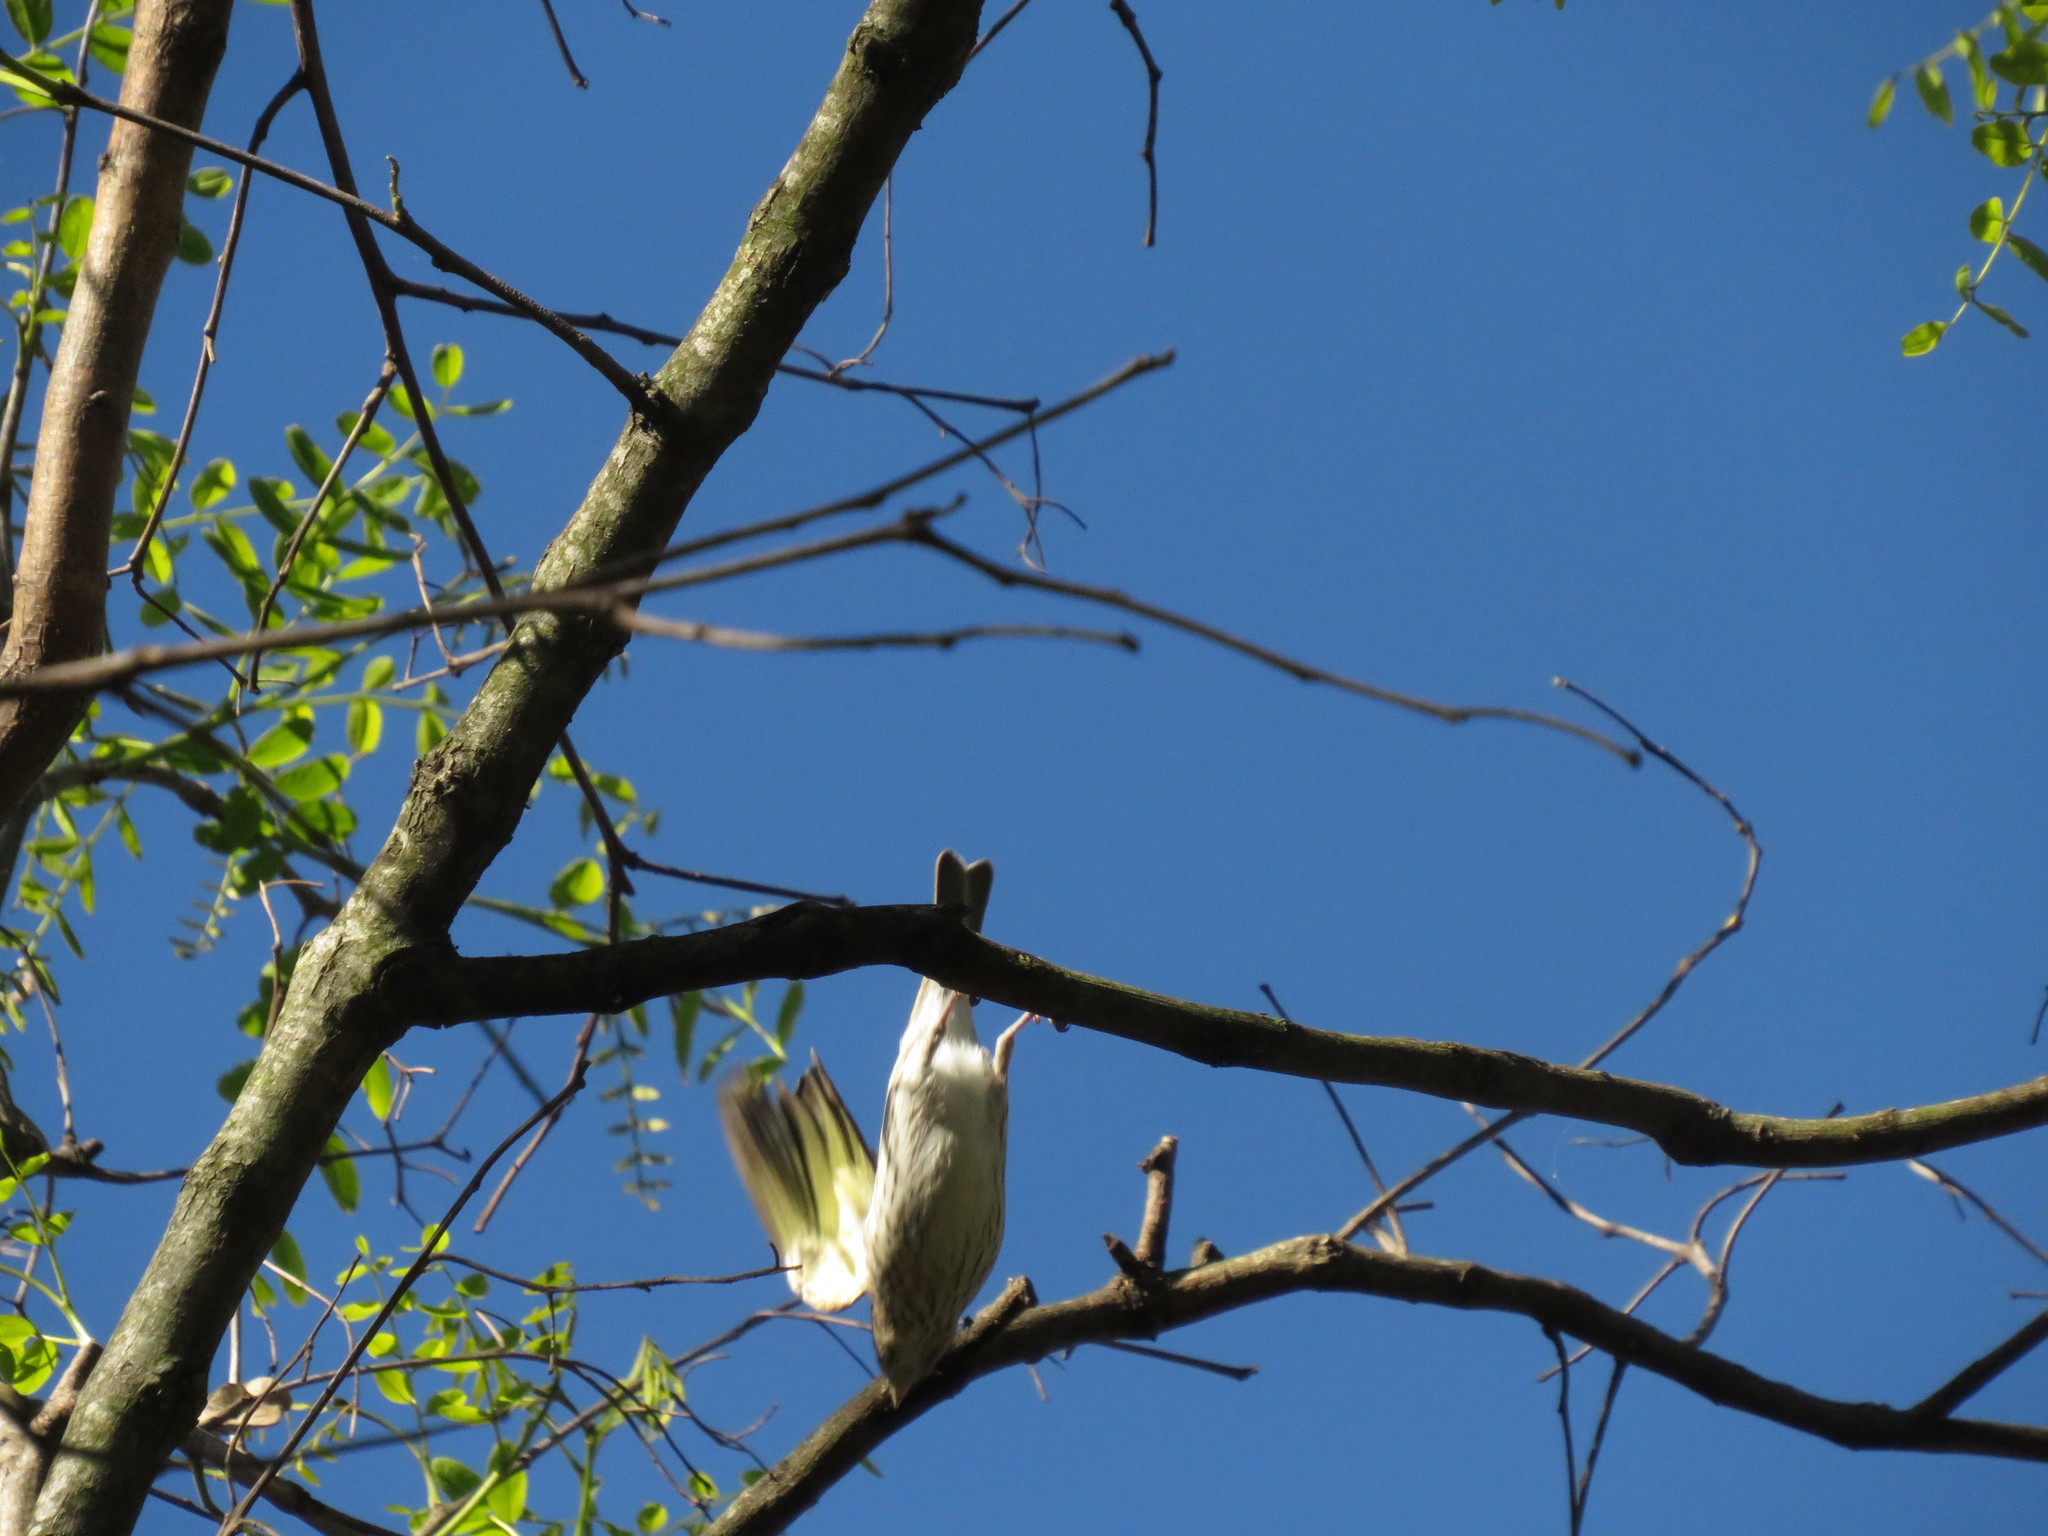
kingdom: Animalia
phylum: Chordata
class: Aves
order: Passeriformes
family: Thraupidae
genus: Sicalis
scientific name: Sicalis flaveola
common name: Saffron finch
